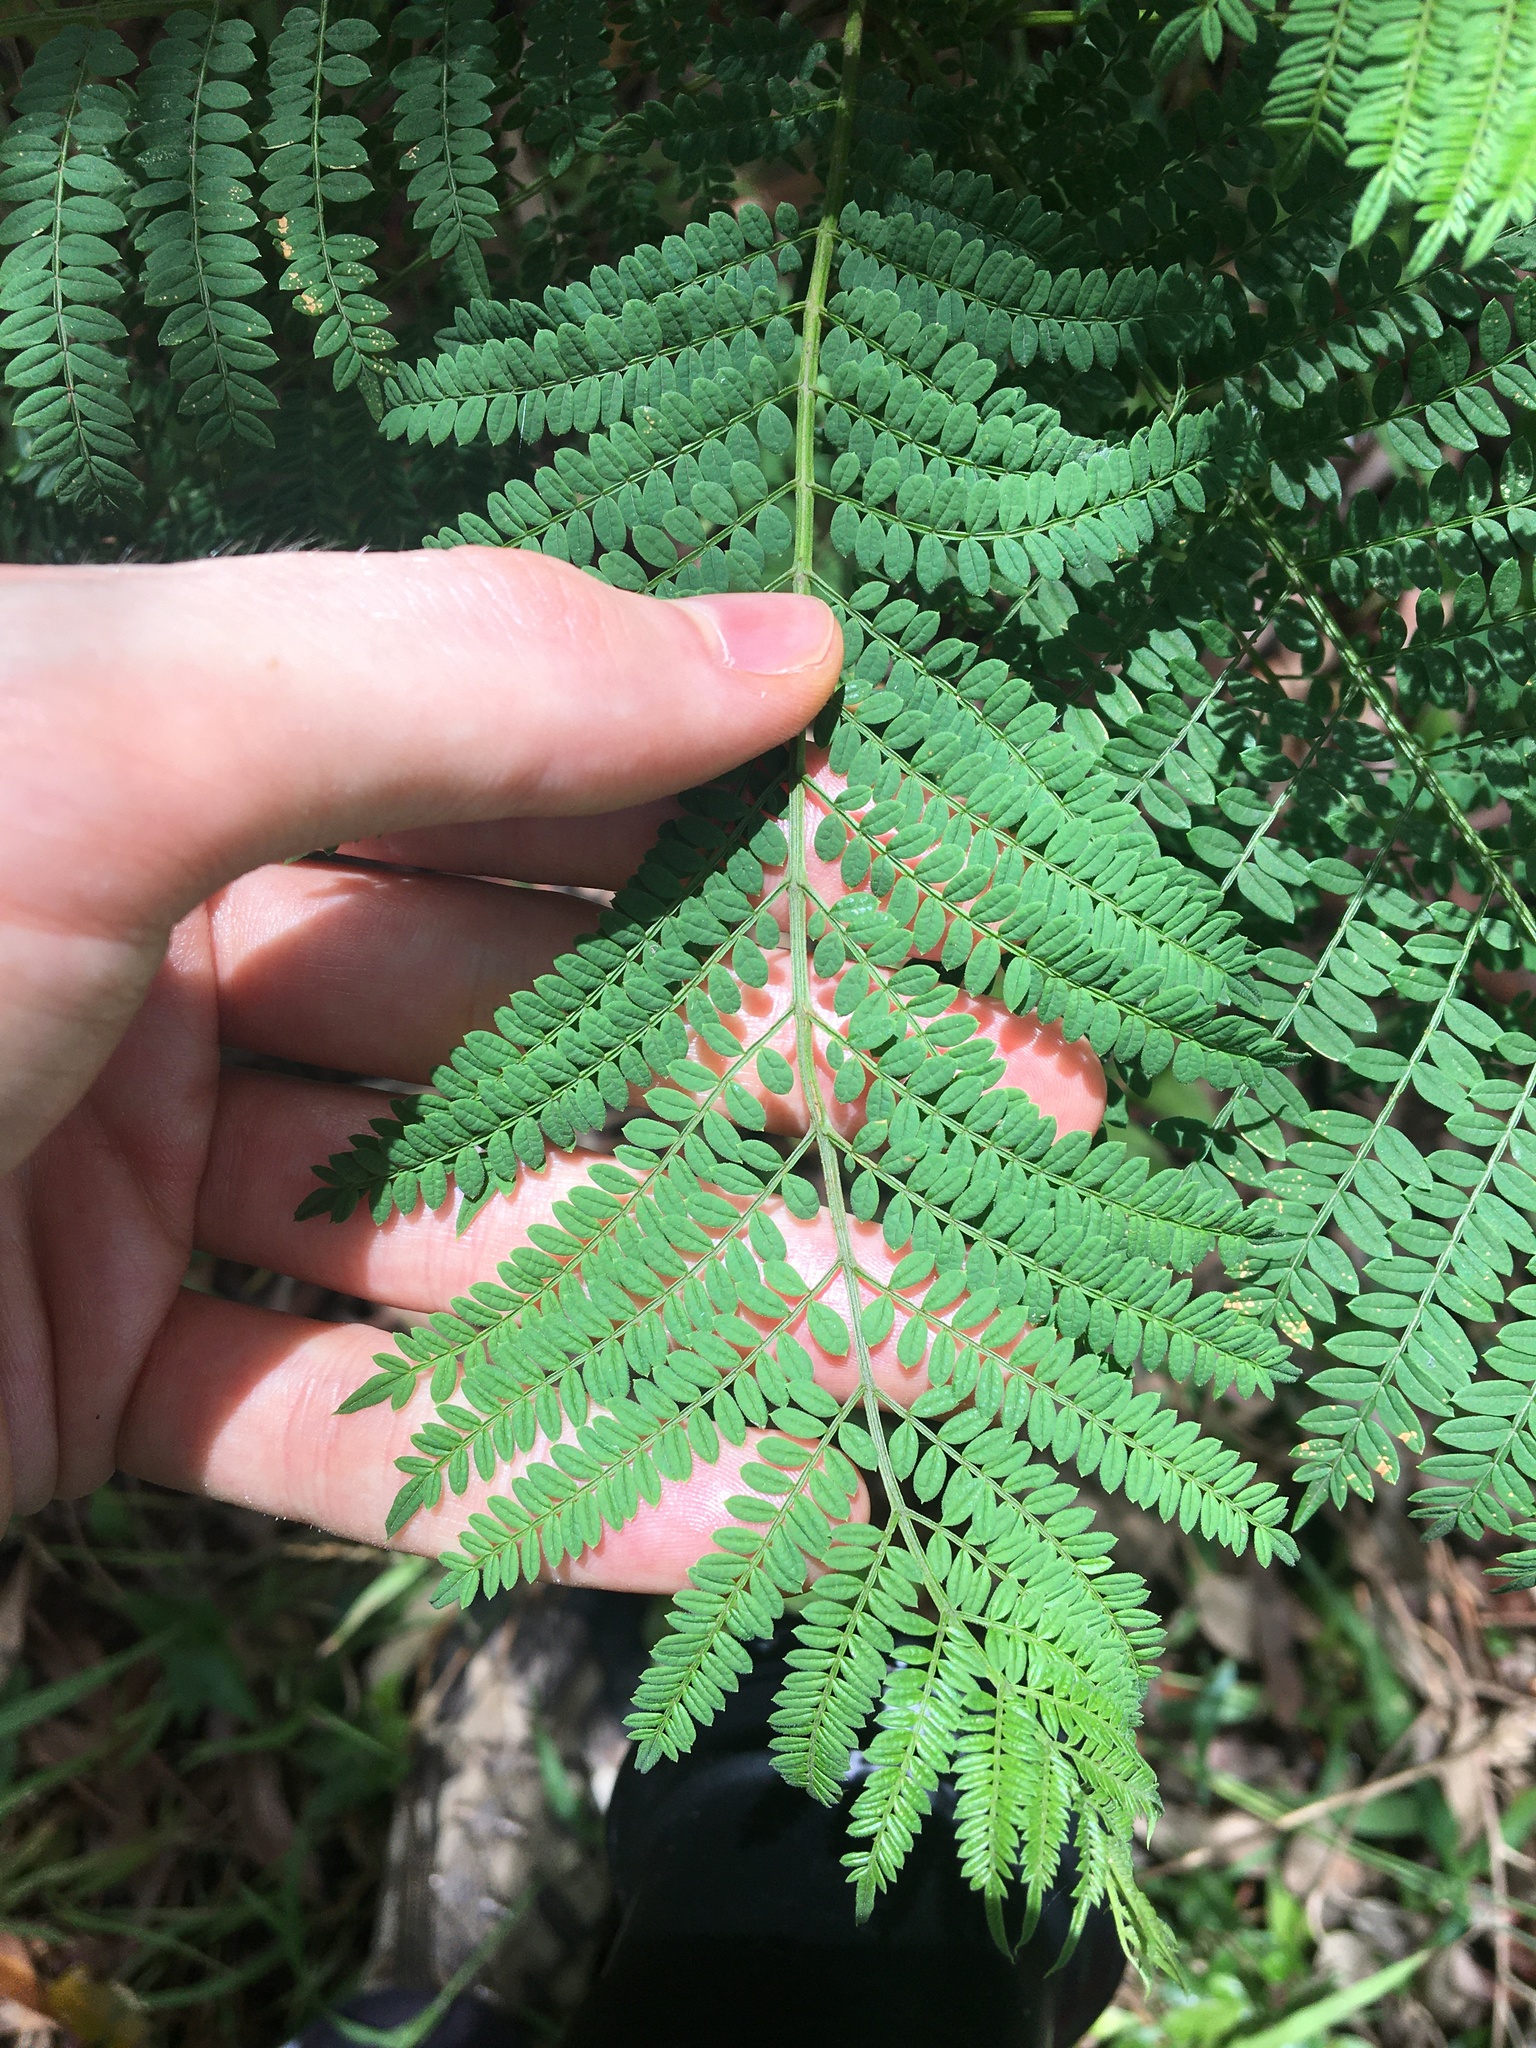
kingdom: Plantae
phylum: Tracheophyta
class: Magnoliopsida
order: Lamiales
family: Bignoniaceae
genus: Jacaranda
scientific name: Jacaranda mimosifolia
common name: Black poui
